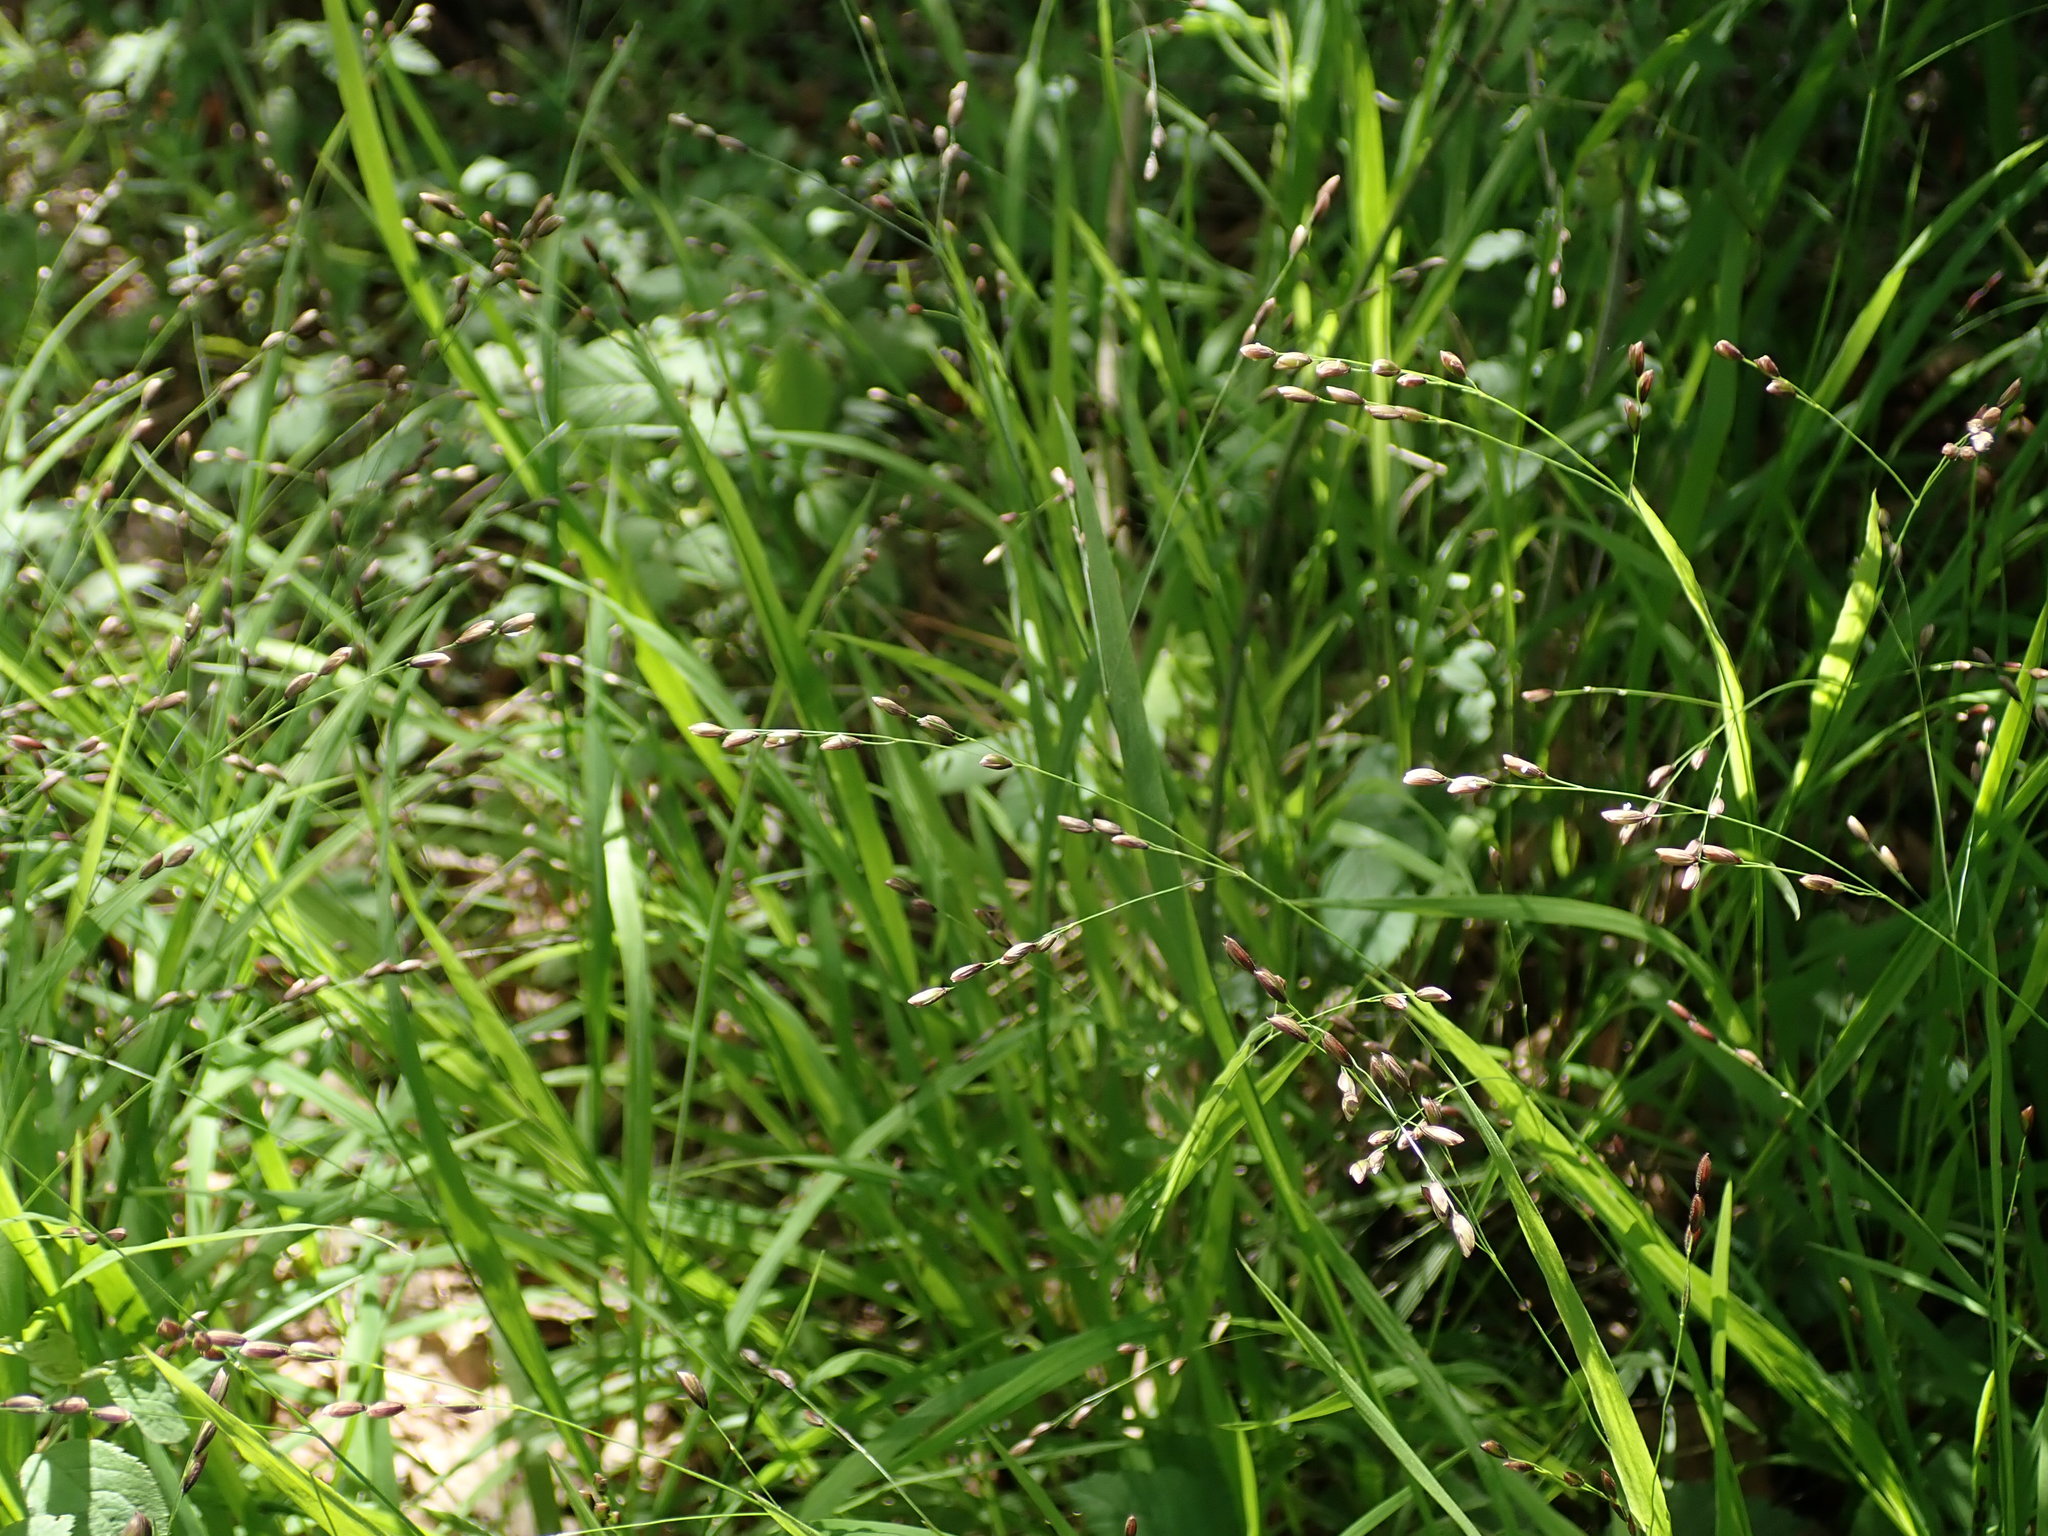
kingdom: Plantae
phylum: Tracheophyta
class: Liliopsida
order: Poales
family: Poaceae
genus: Melica
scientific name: Melica uniflora
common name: Wood melick
